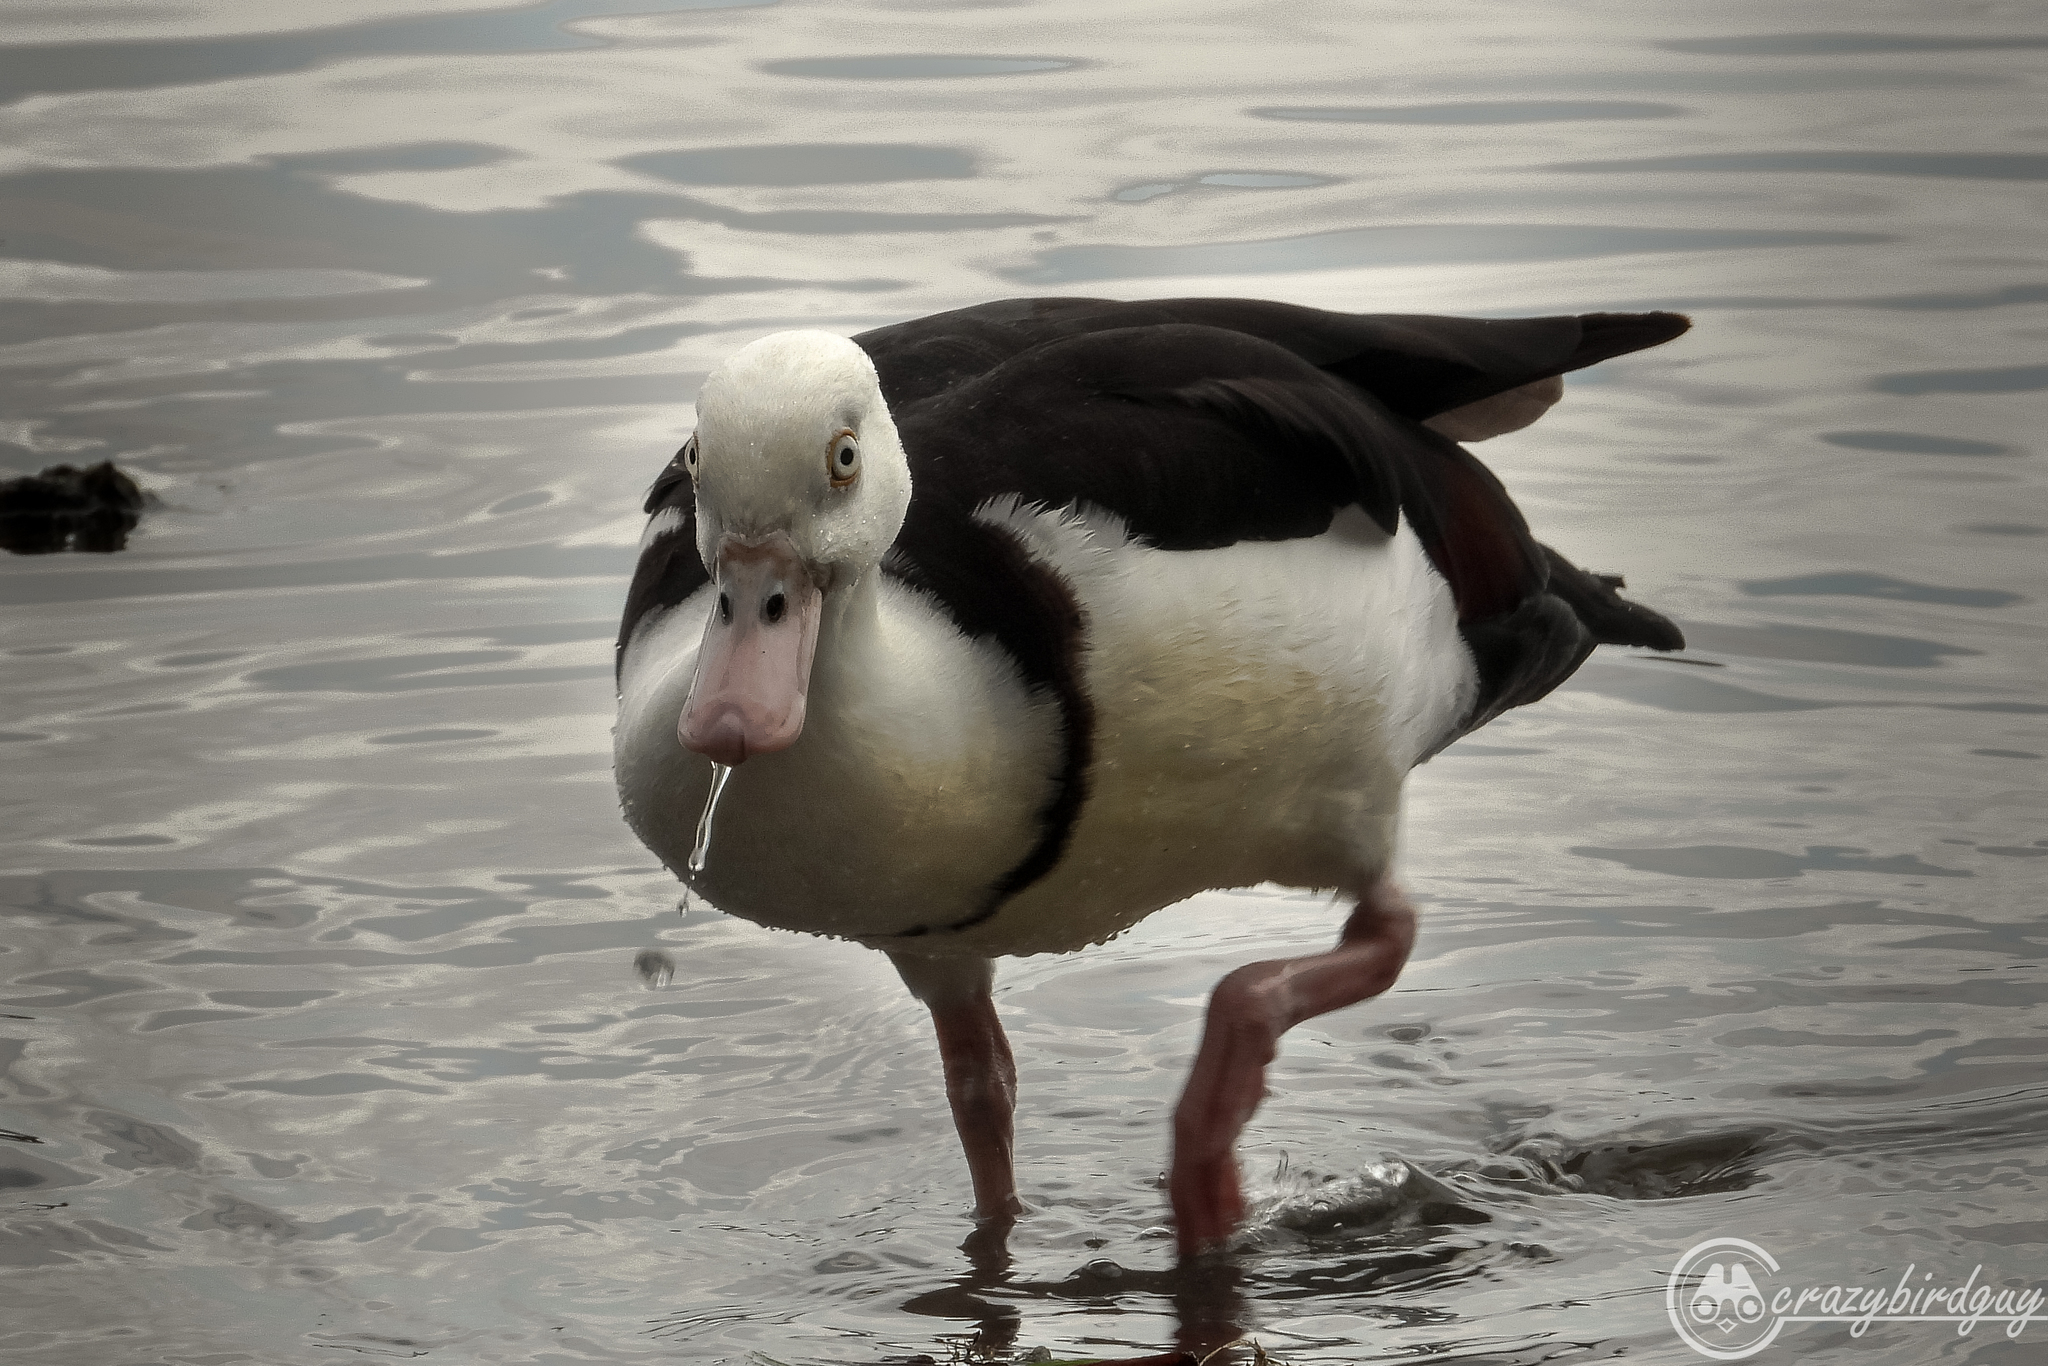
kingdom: Animalia
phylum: Chordata
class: Aves
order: Anseriformes
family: Anatidae
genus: Radjah
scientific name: Radjah radjah
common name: Radjah shelduck
